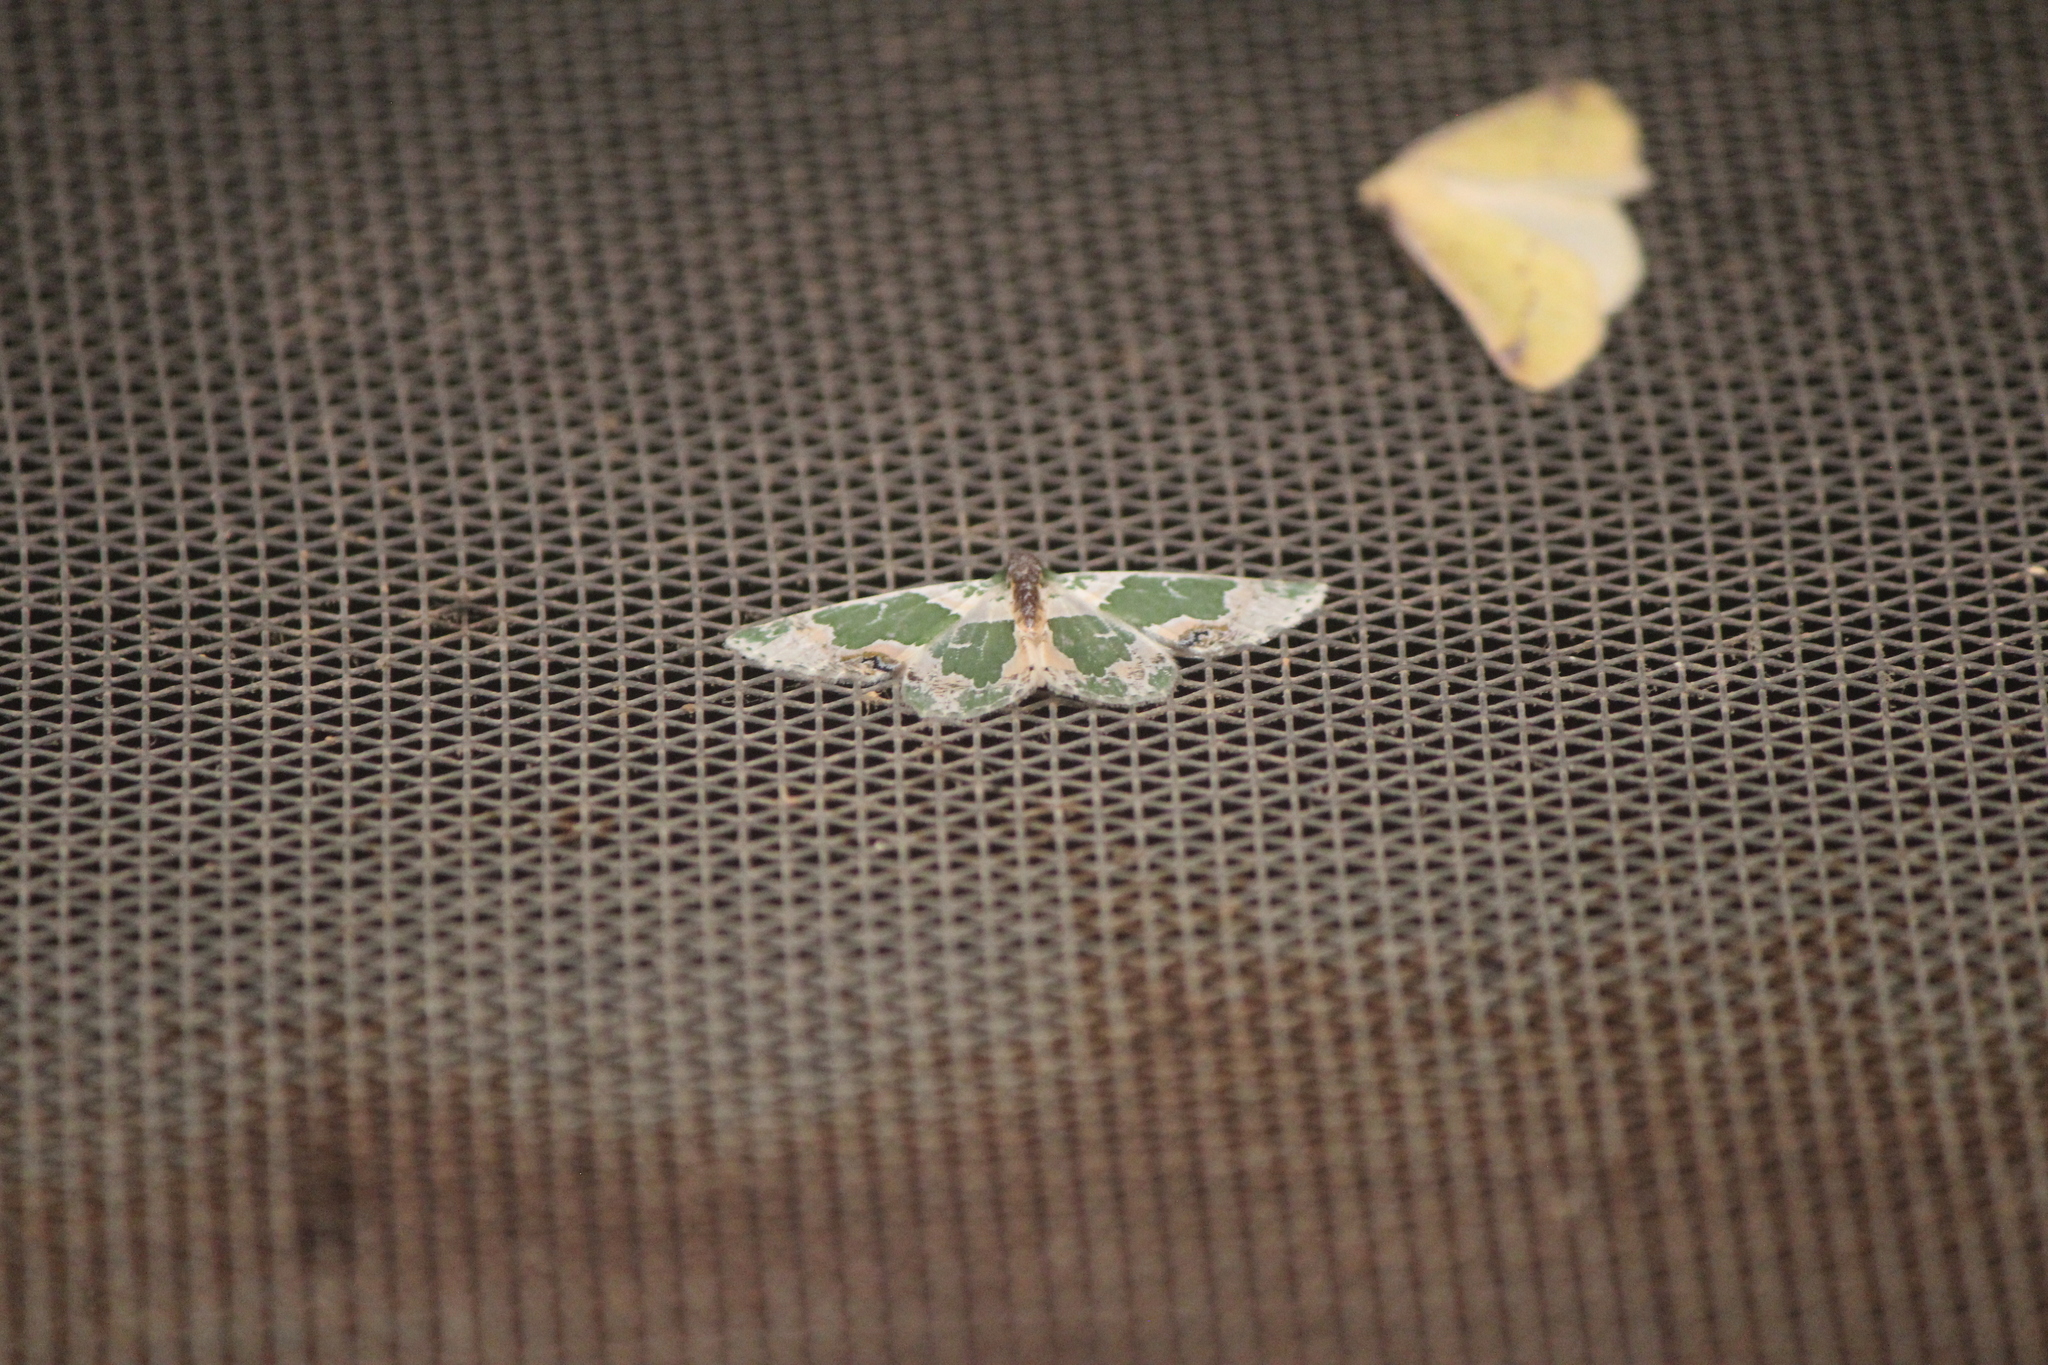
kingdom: Animalia
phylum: Arthropoda
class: Insecta
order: Lepidoptera
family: Geometridae
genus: Lophochorista
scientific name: Lophochorista calliope
